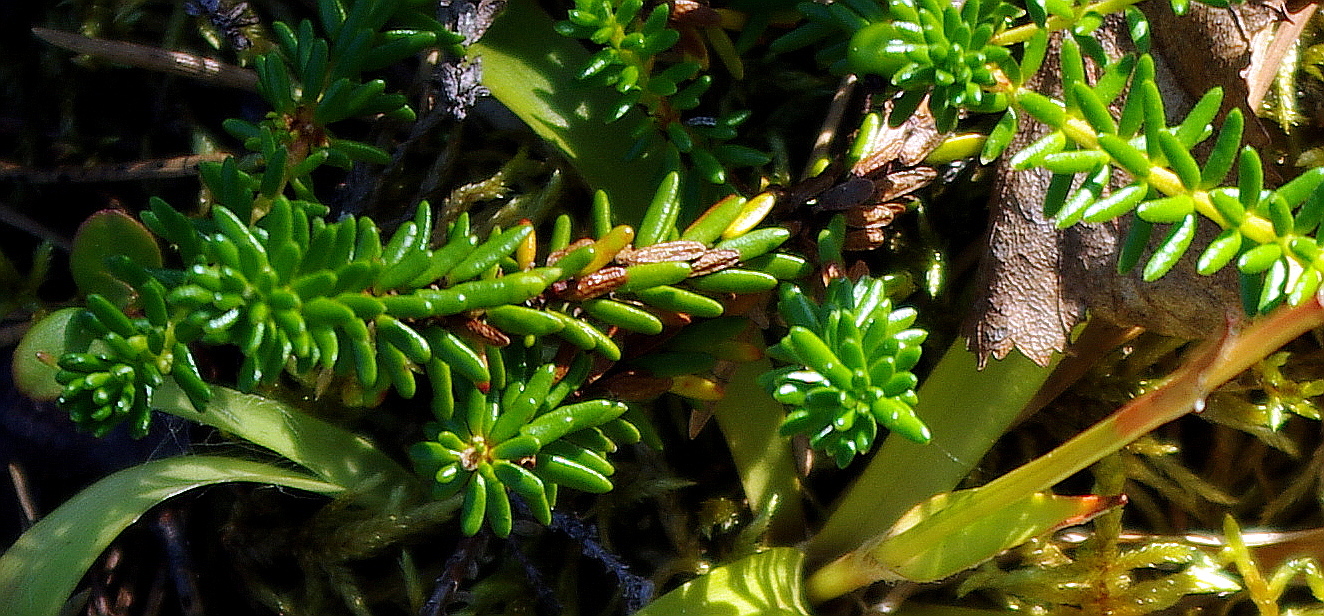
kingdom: Plantae
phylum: Tracheophyta
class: Magnoliopsida
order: Ericales
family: Ericaceae
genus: Empetrum
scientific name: Empetrum nigrum
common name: Black crowberry
